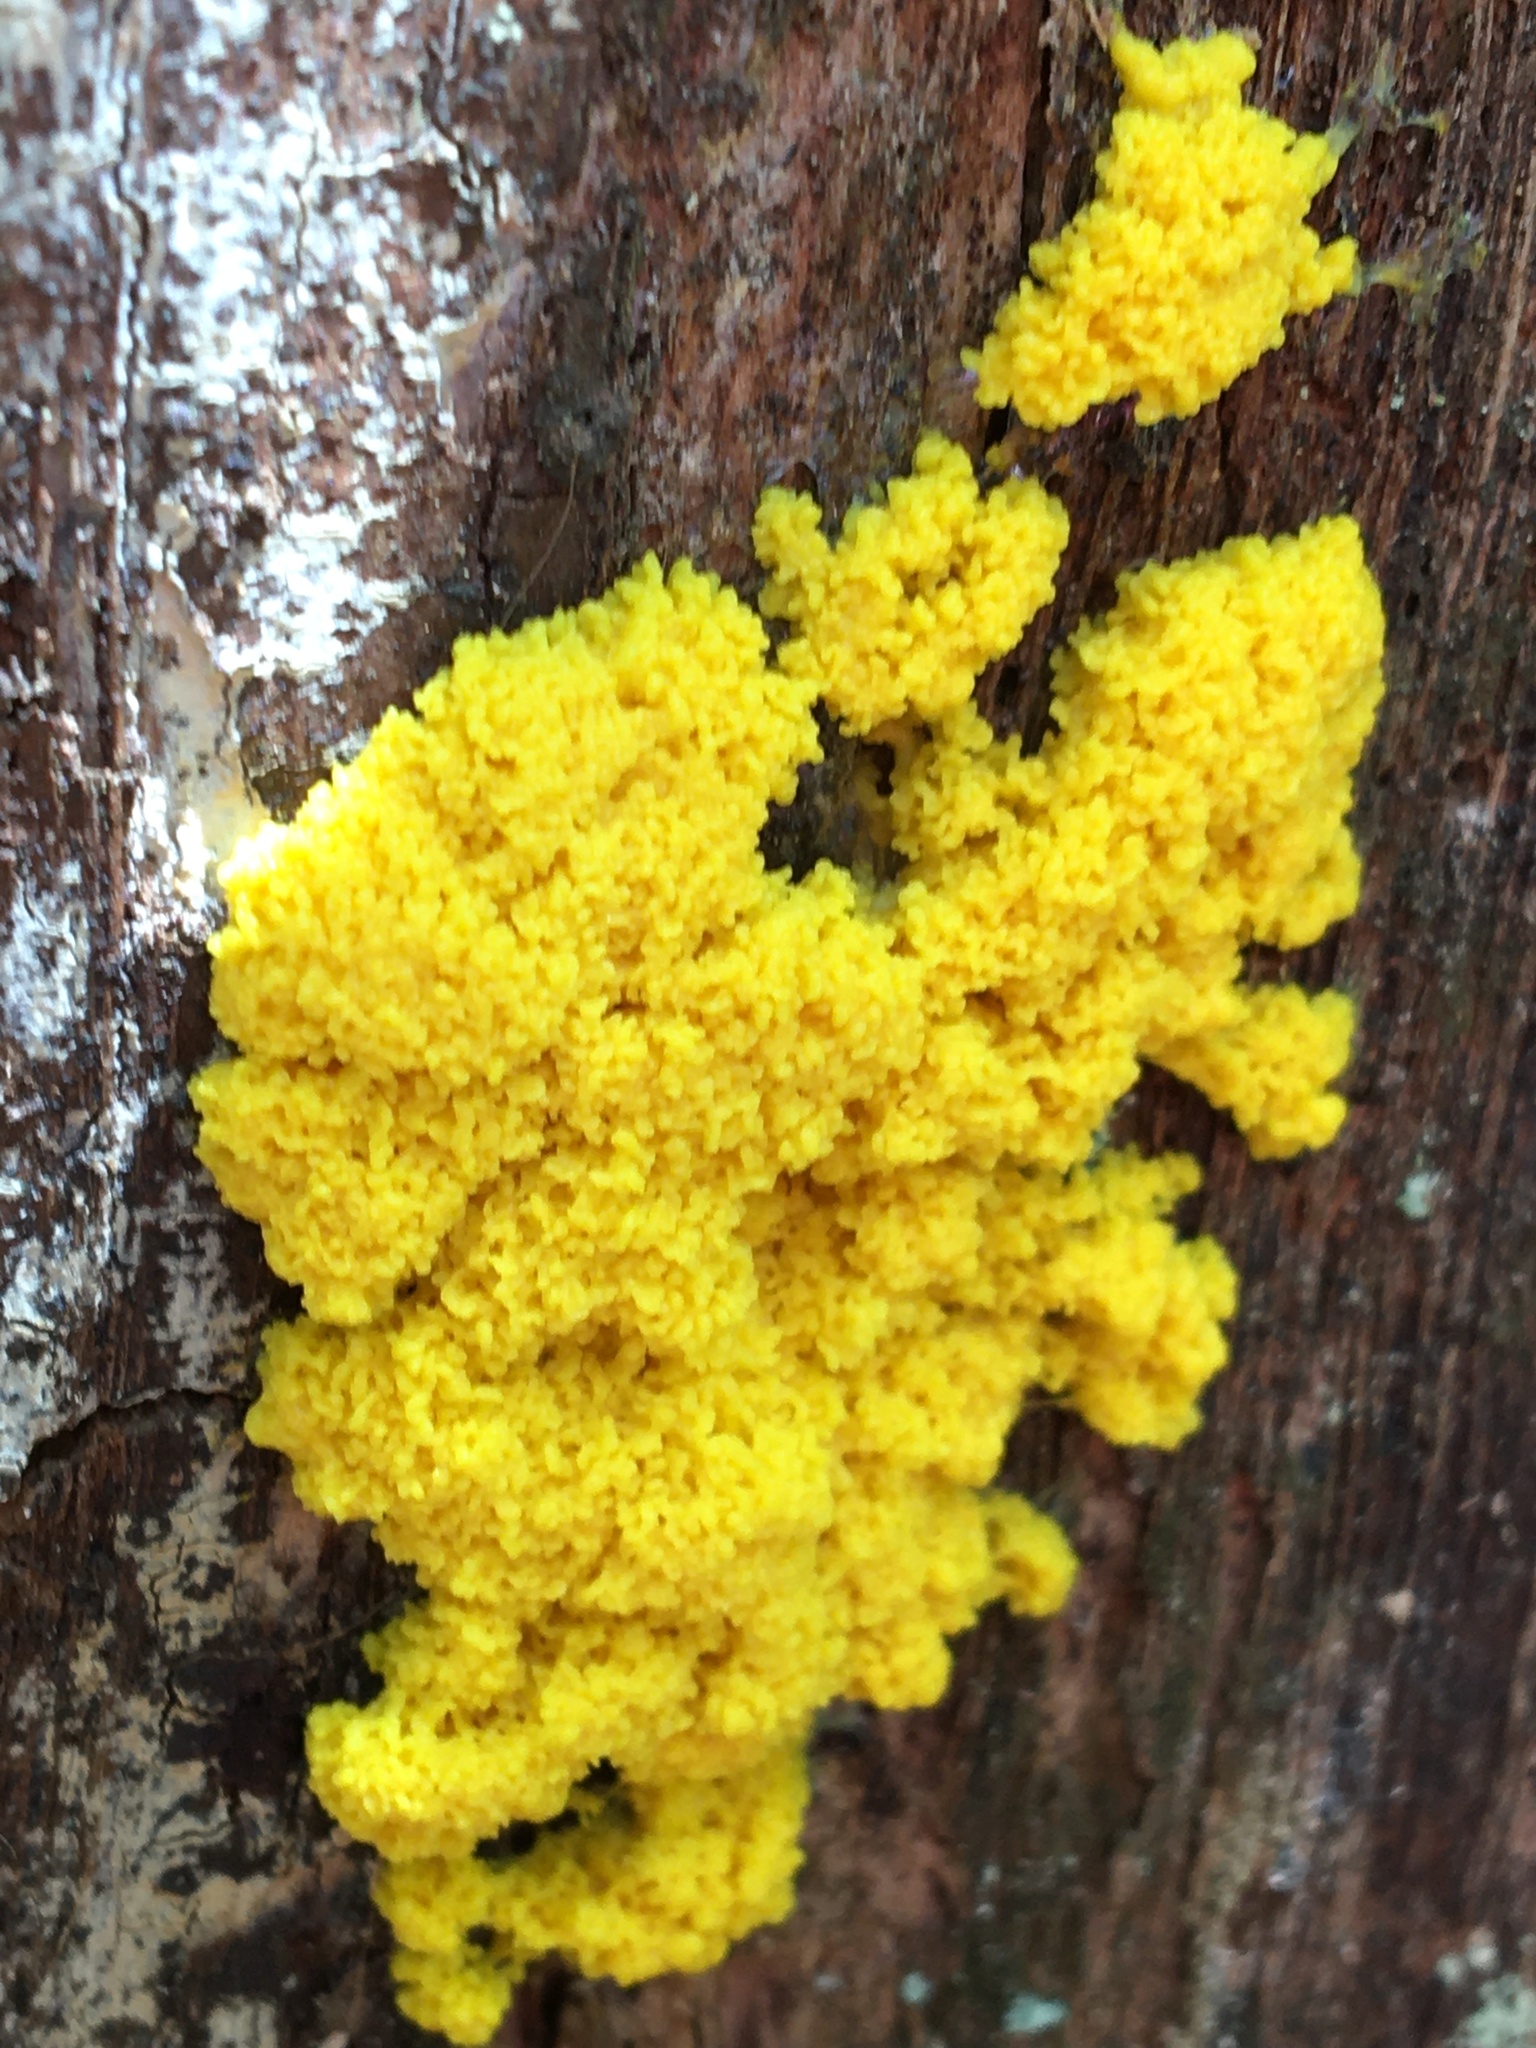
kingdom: Protozoa
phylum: Mycetozoa
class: Myxomycetes
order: Physarales
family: Physaraceae
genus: Fuligo
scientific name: Fuligo septica
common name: Dog vomit slime mold
